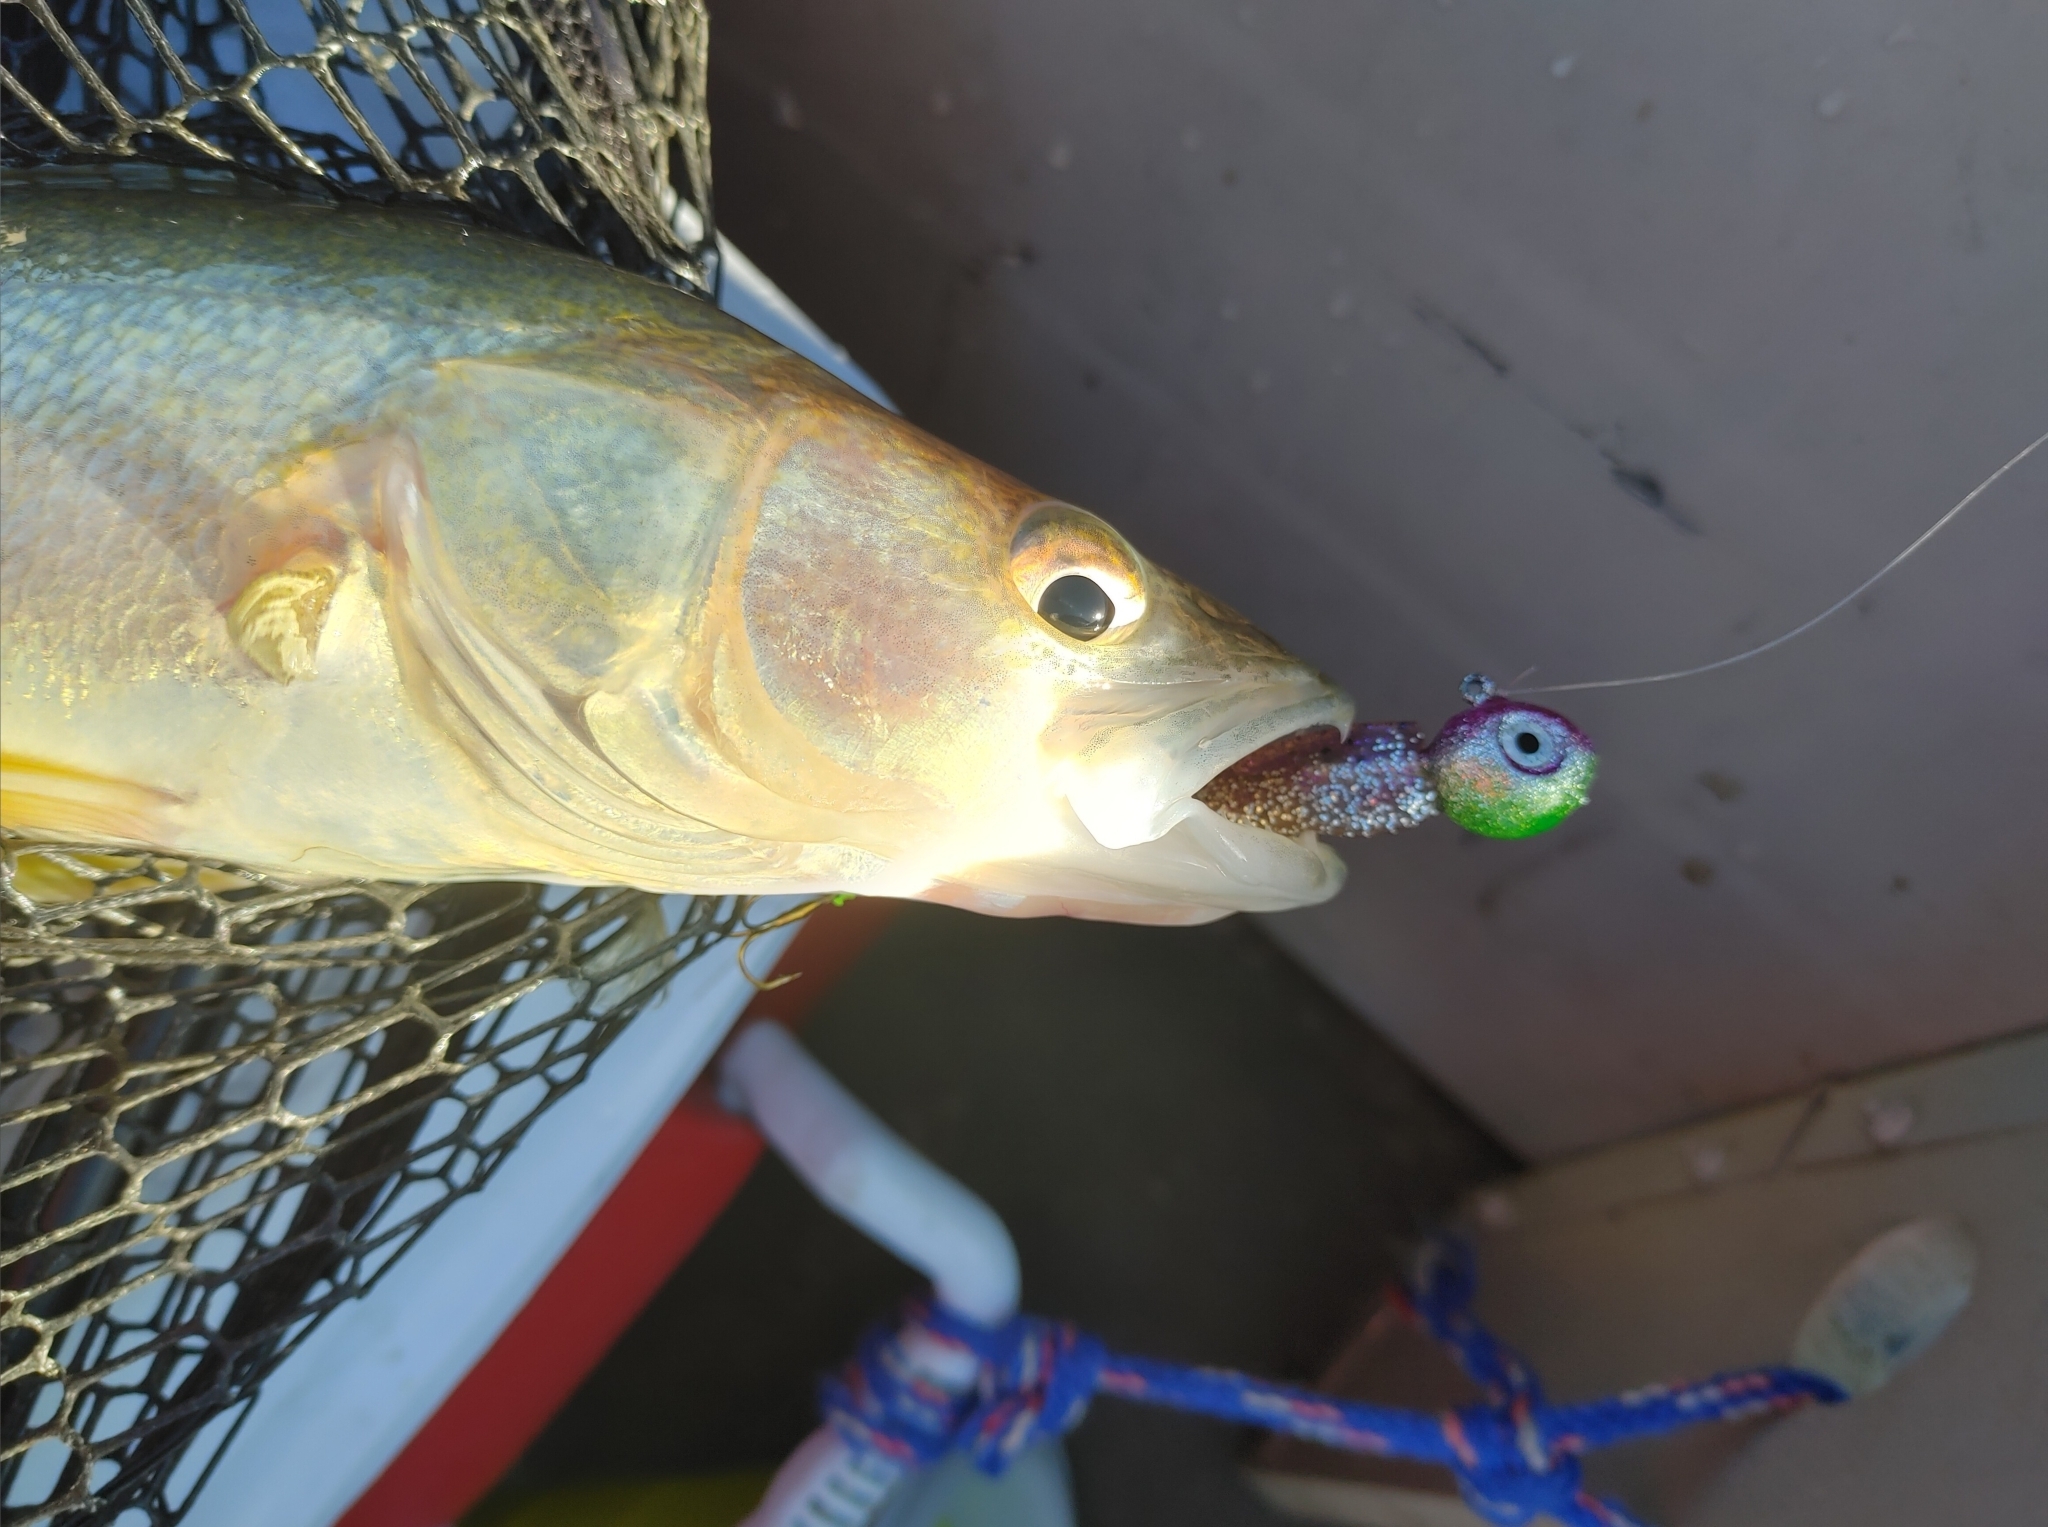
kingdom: Animalia
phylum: Chordata
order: Perciformes
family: Percidae
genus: Sander
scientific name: Sander vitreus
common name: Walleye
